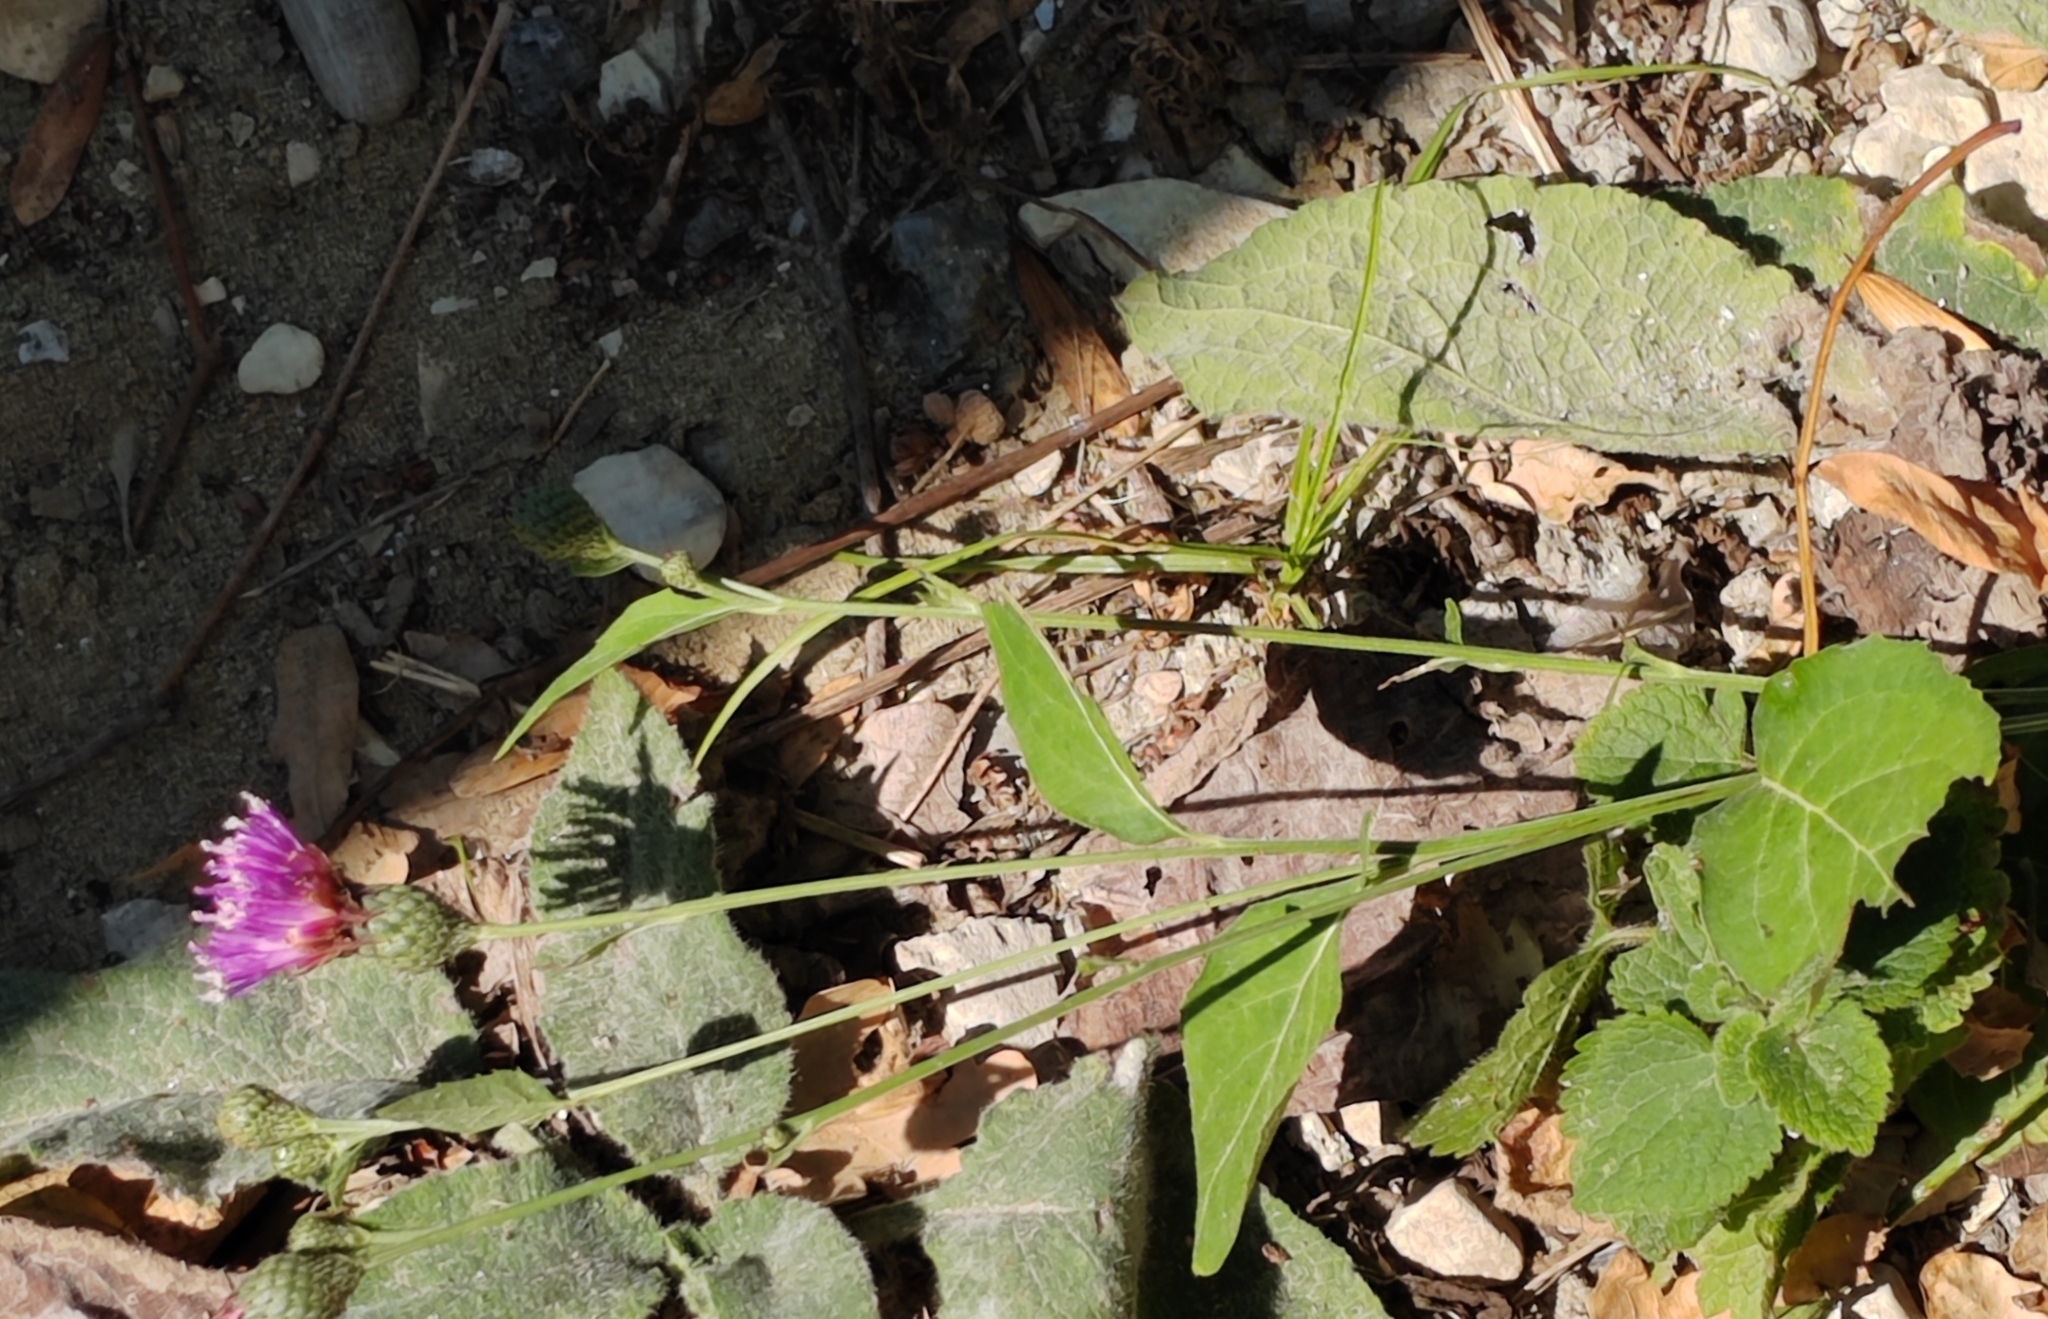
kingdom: Plantae
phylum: Tracheophyta
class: Magnoliopsida
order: Asterales
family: Asteraceae
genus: Klasea
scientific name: Klasea quinquefolia
